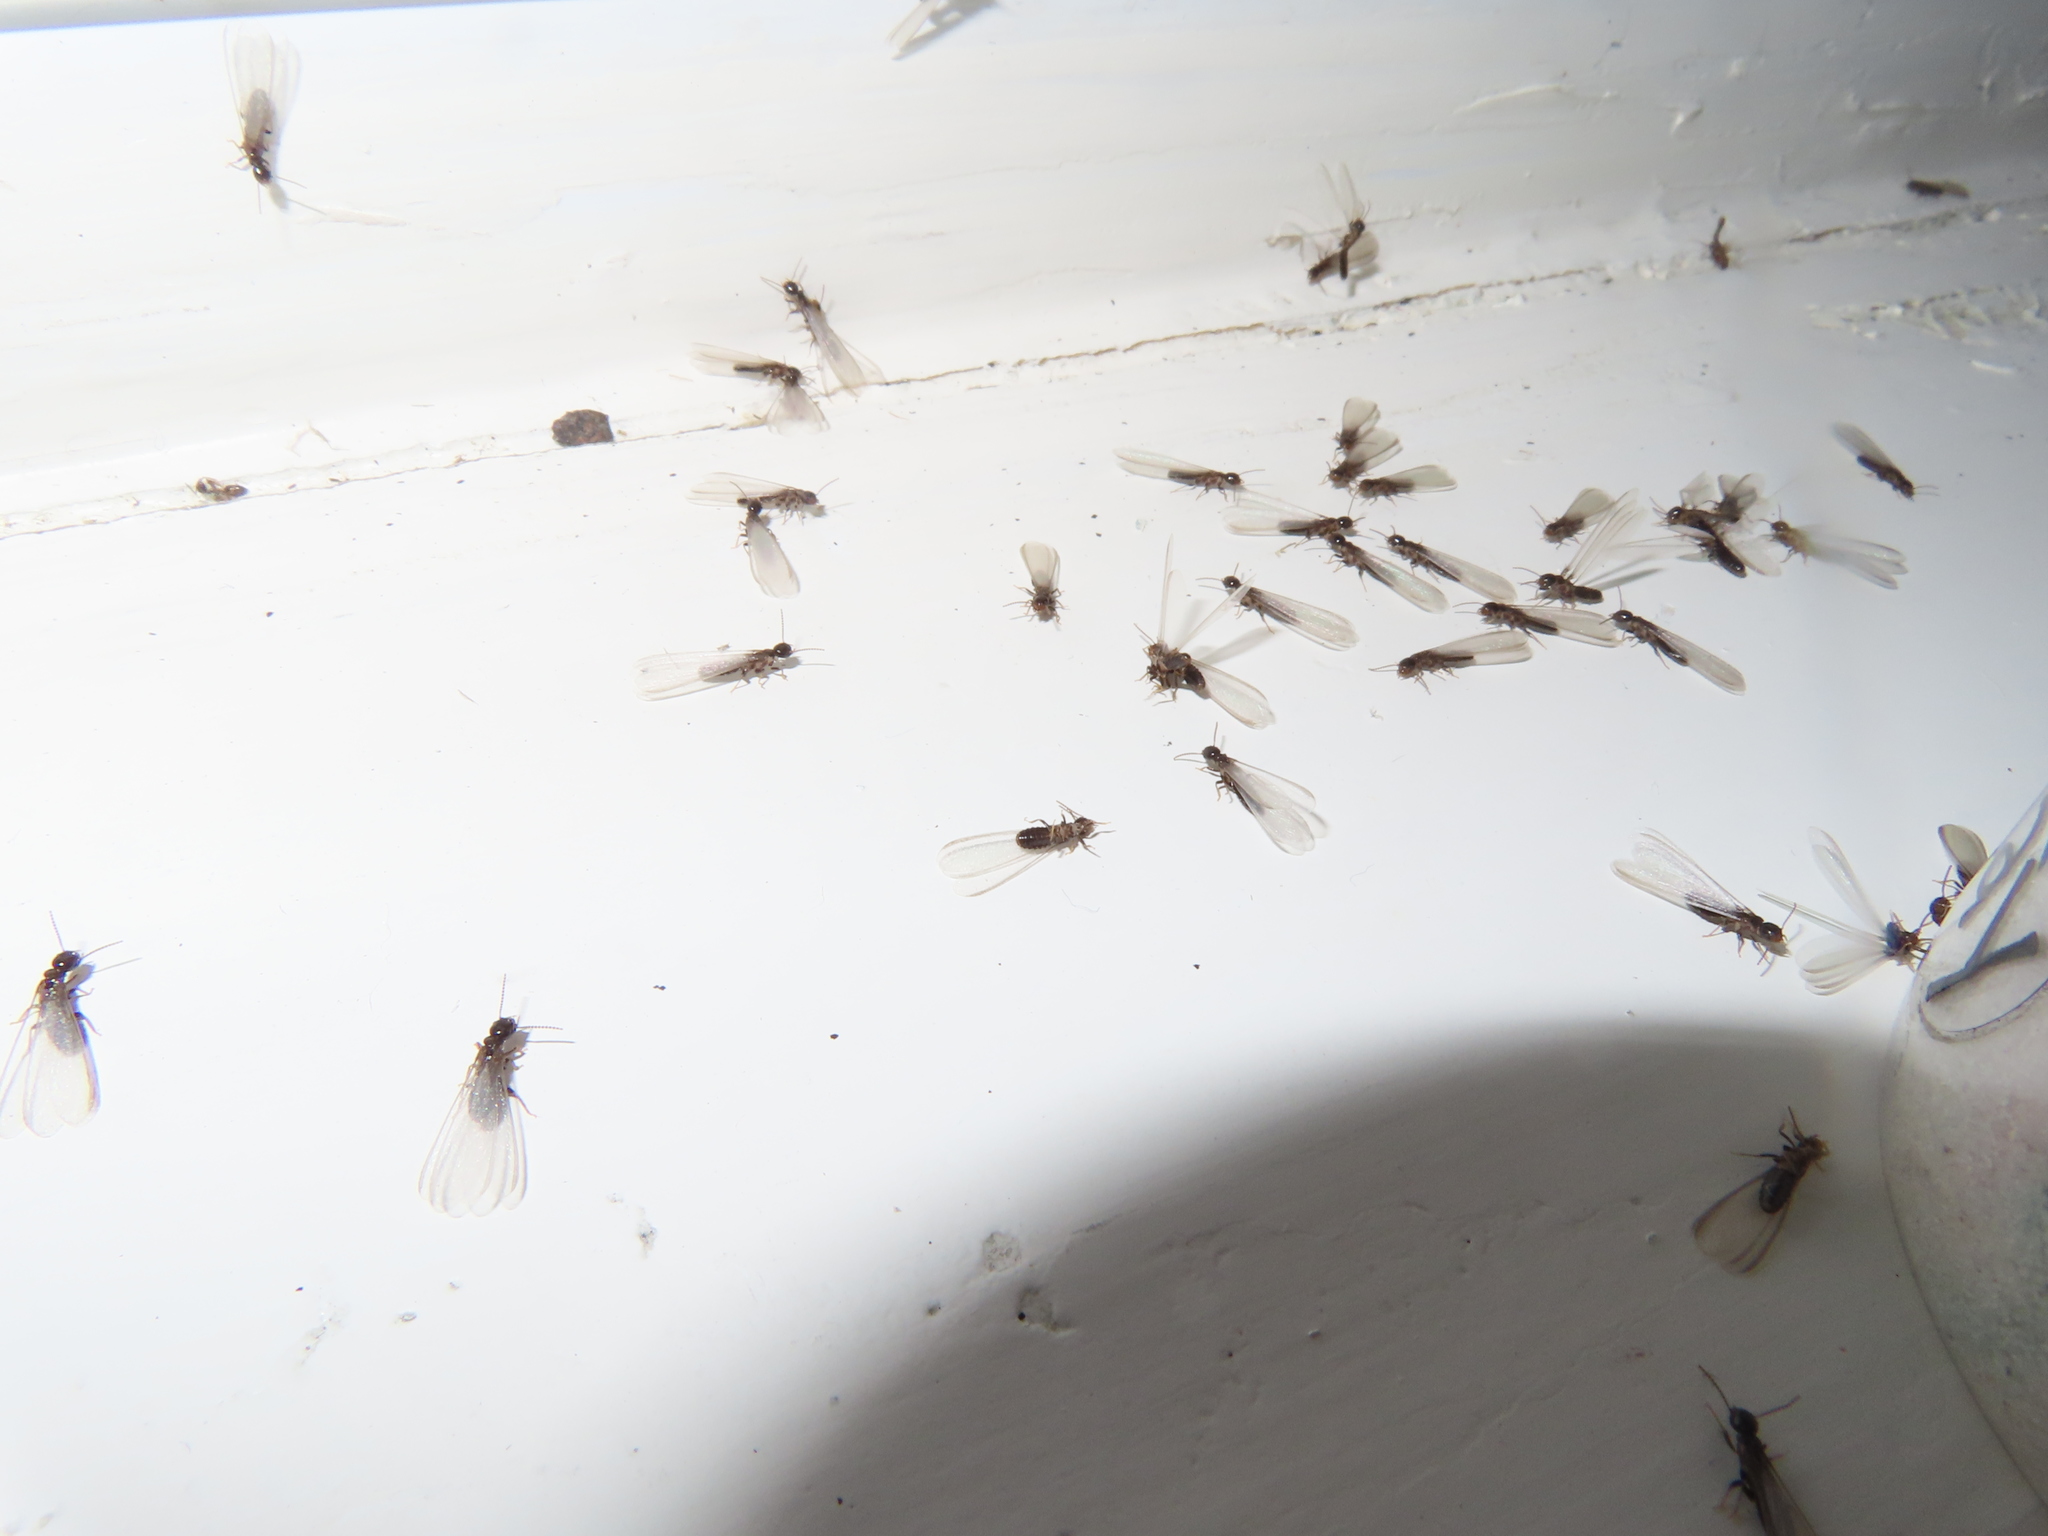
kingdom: Animalia
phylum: Arthropoda
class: Insecta
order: Blattodea
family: Rhinotermitidae
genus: Reticulitermes
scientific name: Reticulitermes flavipes
